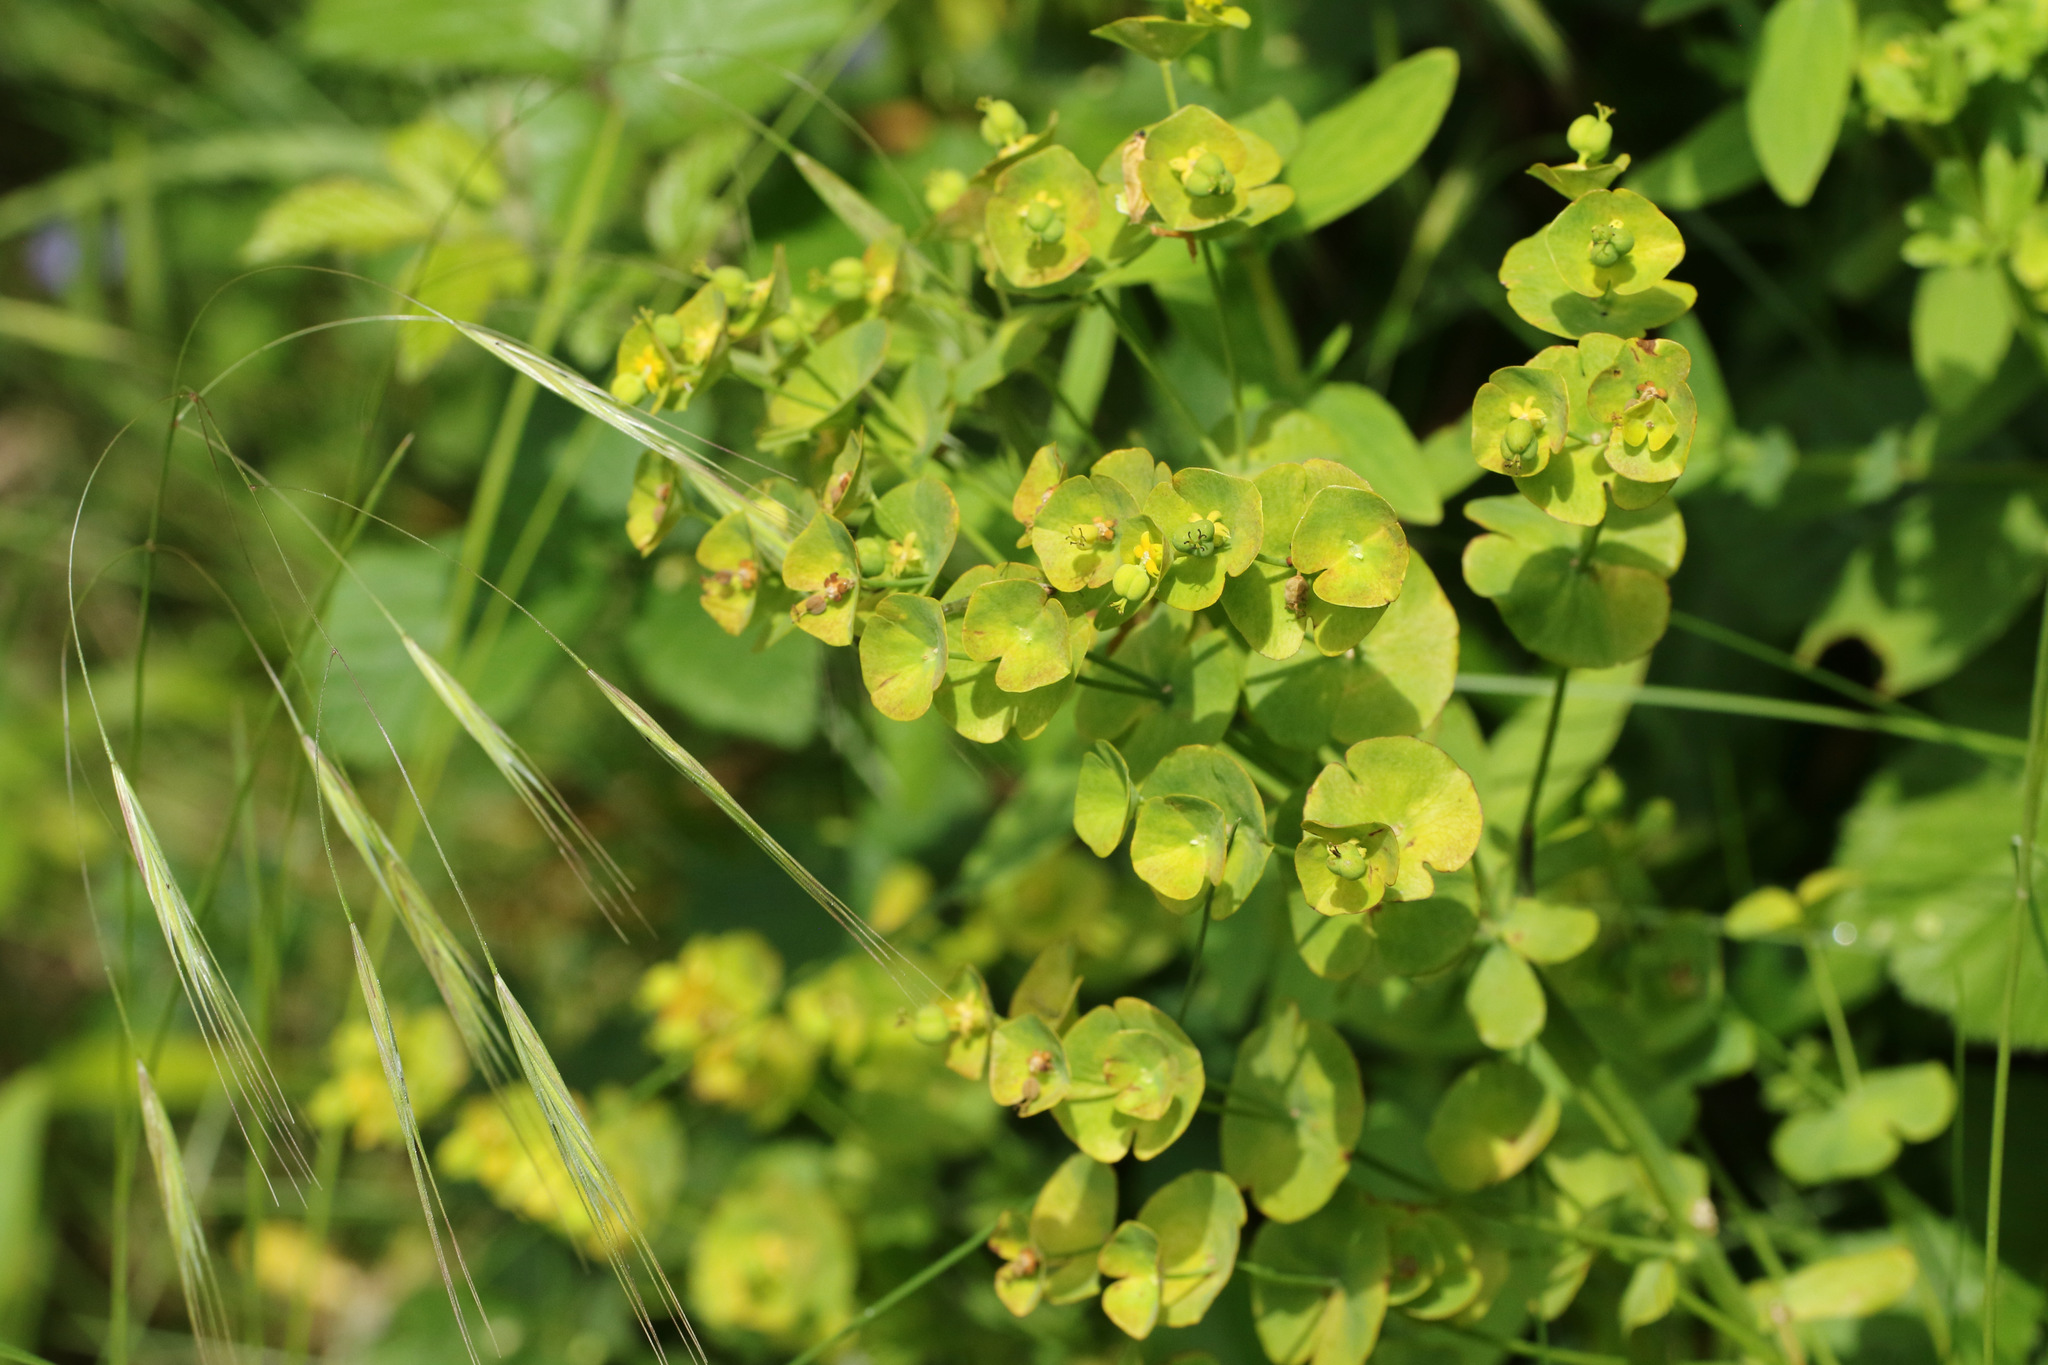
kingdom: Plantae
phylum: Tracheophyta
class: Magnoliopsida
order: Malpighiales
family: Euphorbiaceae
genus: Euphorbia
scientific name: Euphorbia amygdaloides
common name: Wood spurge
